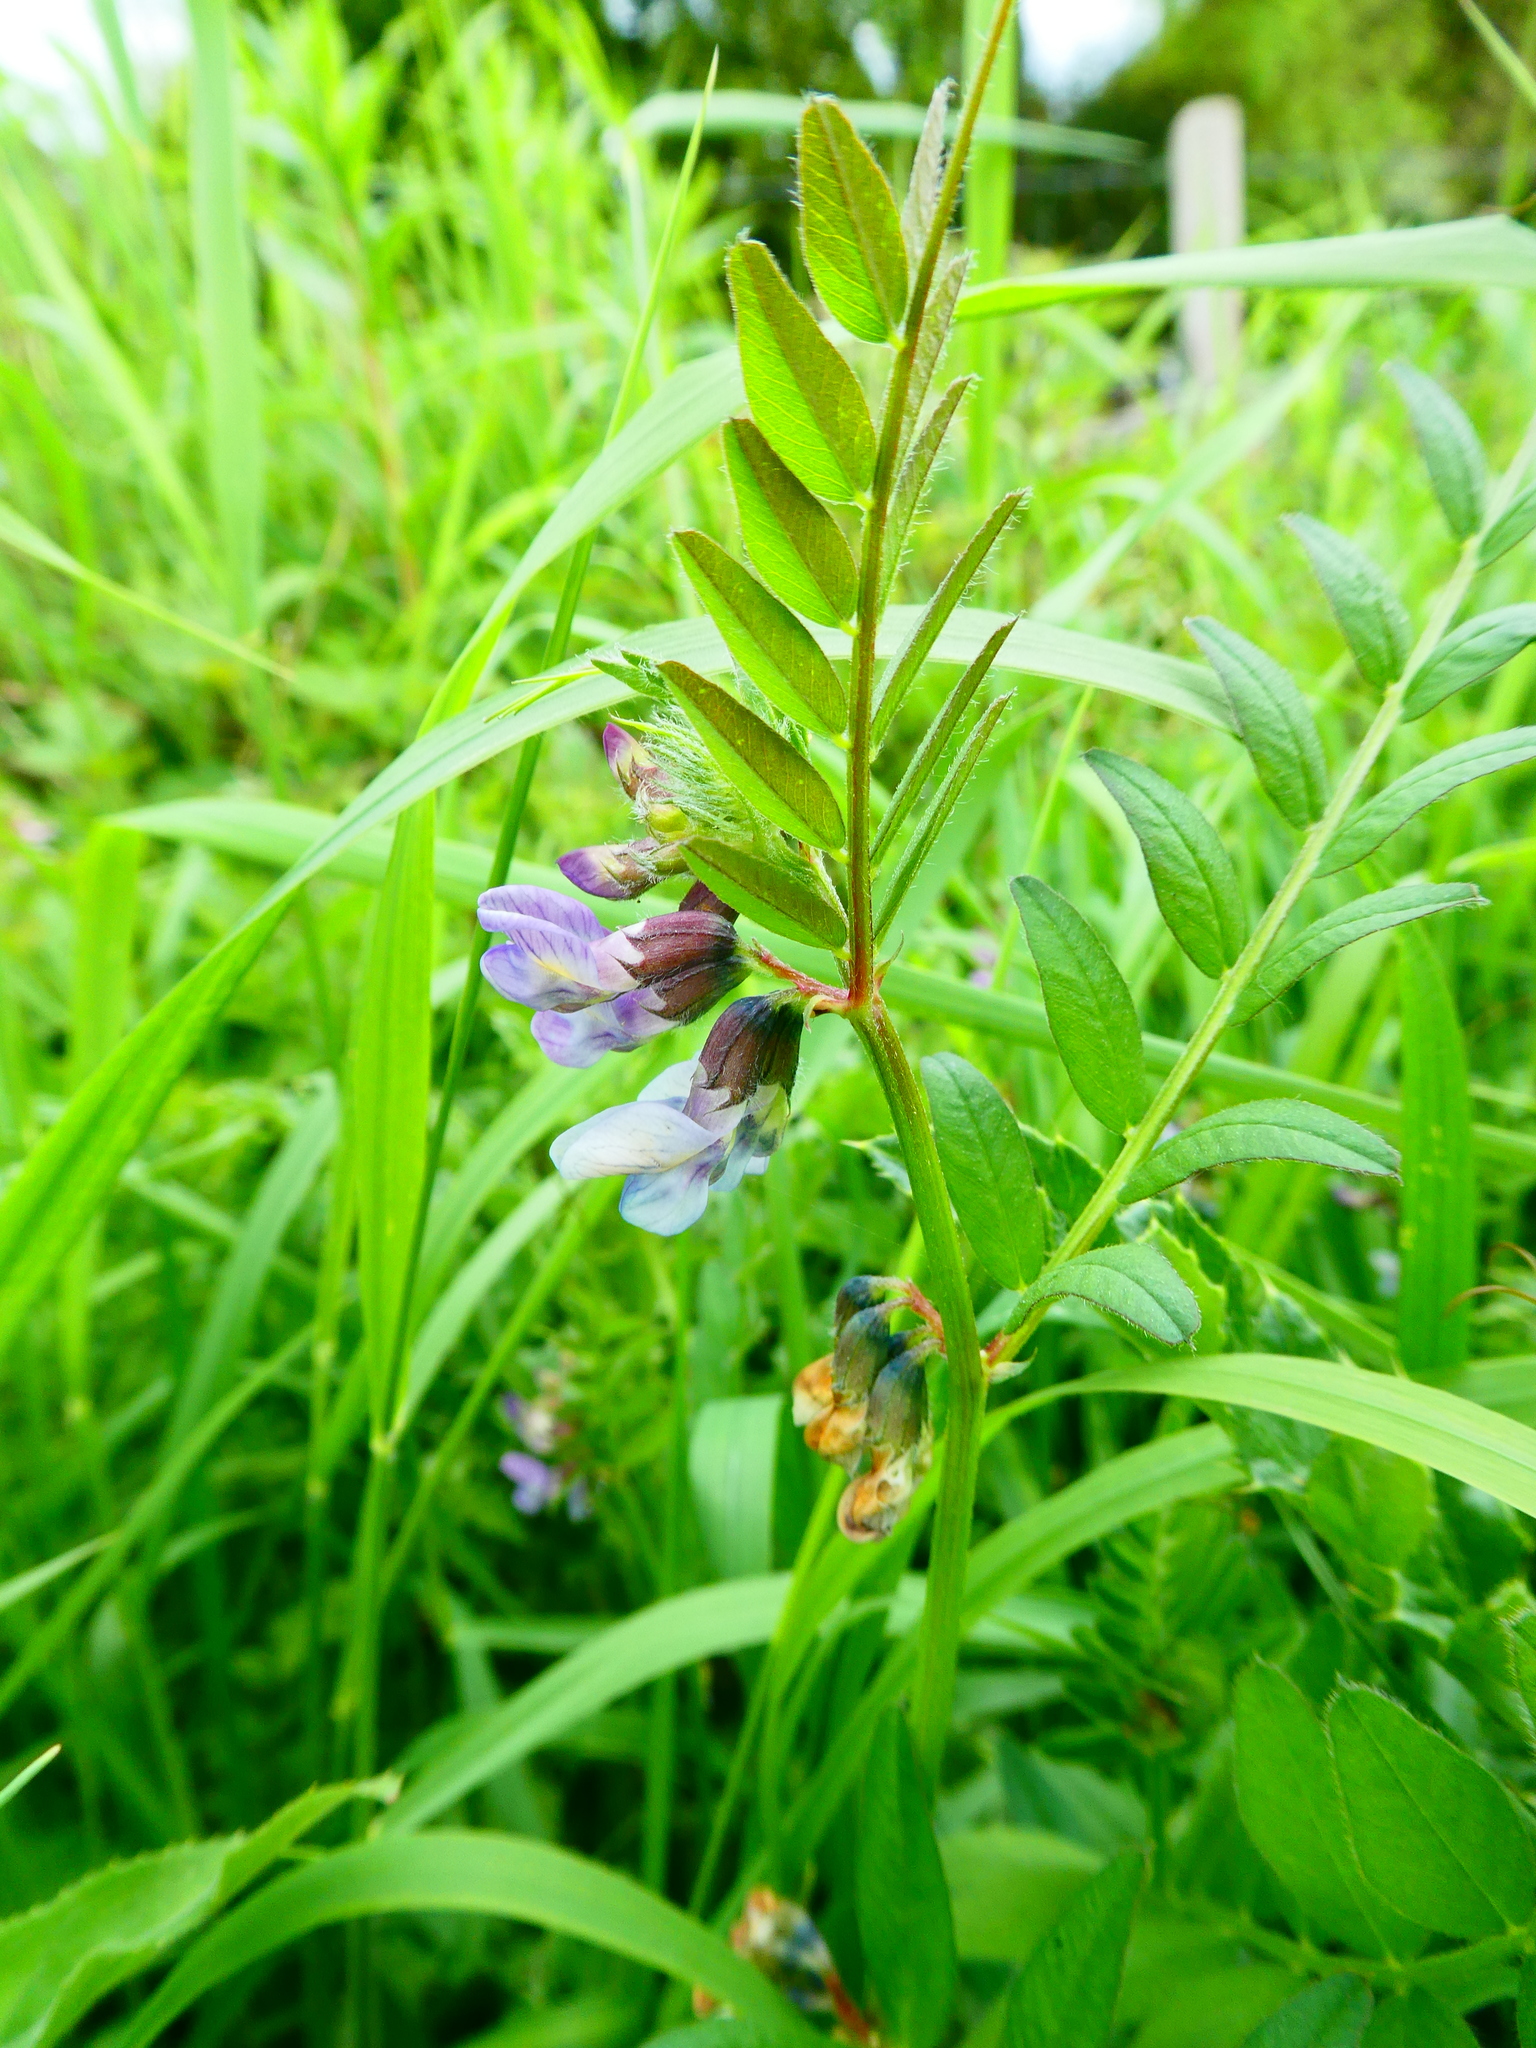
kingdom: Plantae
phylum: Tracheophyta
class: Magnoliopsida
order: Fabales
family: Fabaceae
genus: Vicia
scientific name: Vicia sepium
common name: Bush vetch
